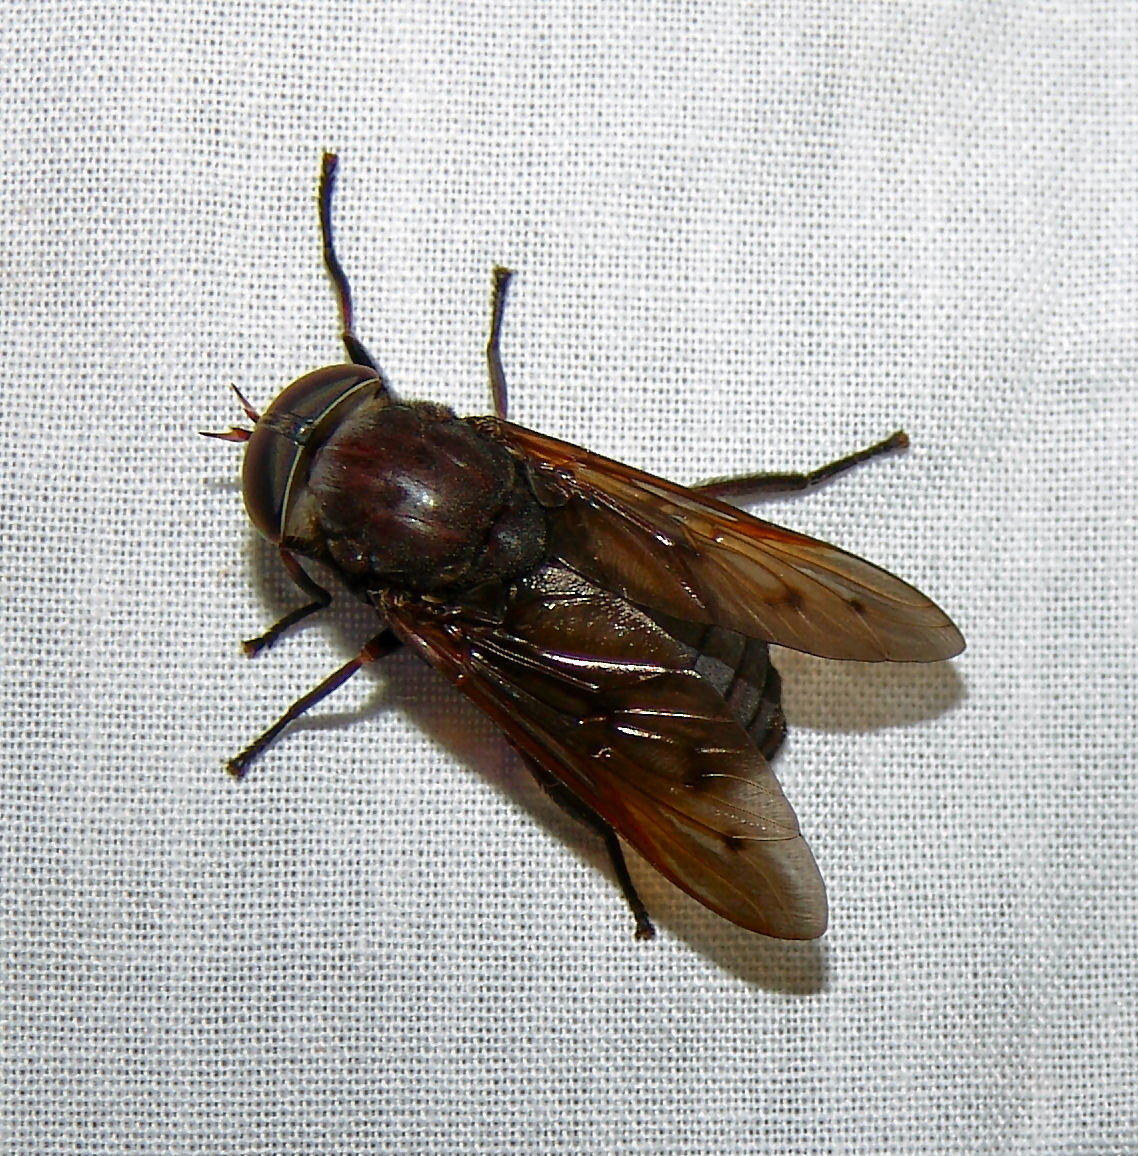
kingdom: Animalia
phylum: Arthropoda
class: Insecta
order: Diptera
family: Tabanidae
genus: Tabanus
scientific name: Tabanus proximus
